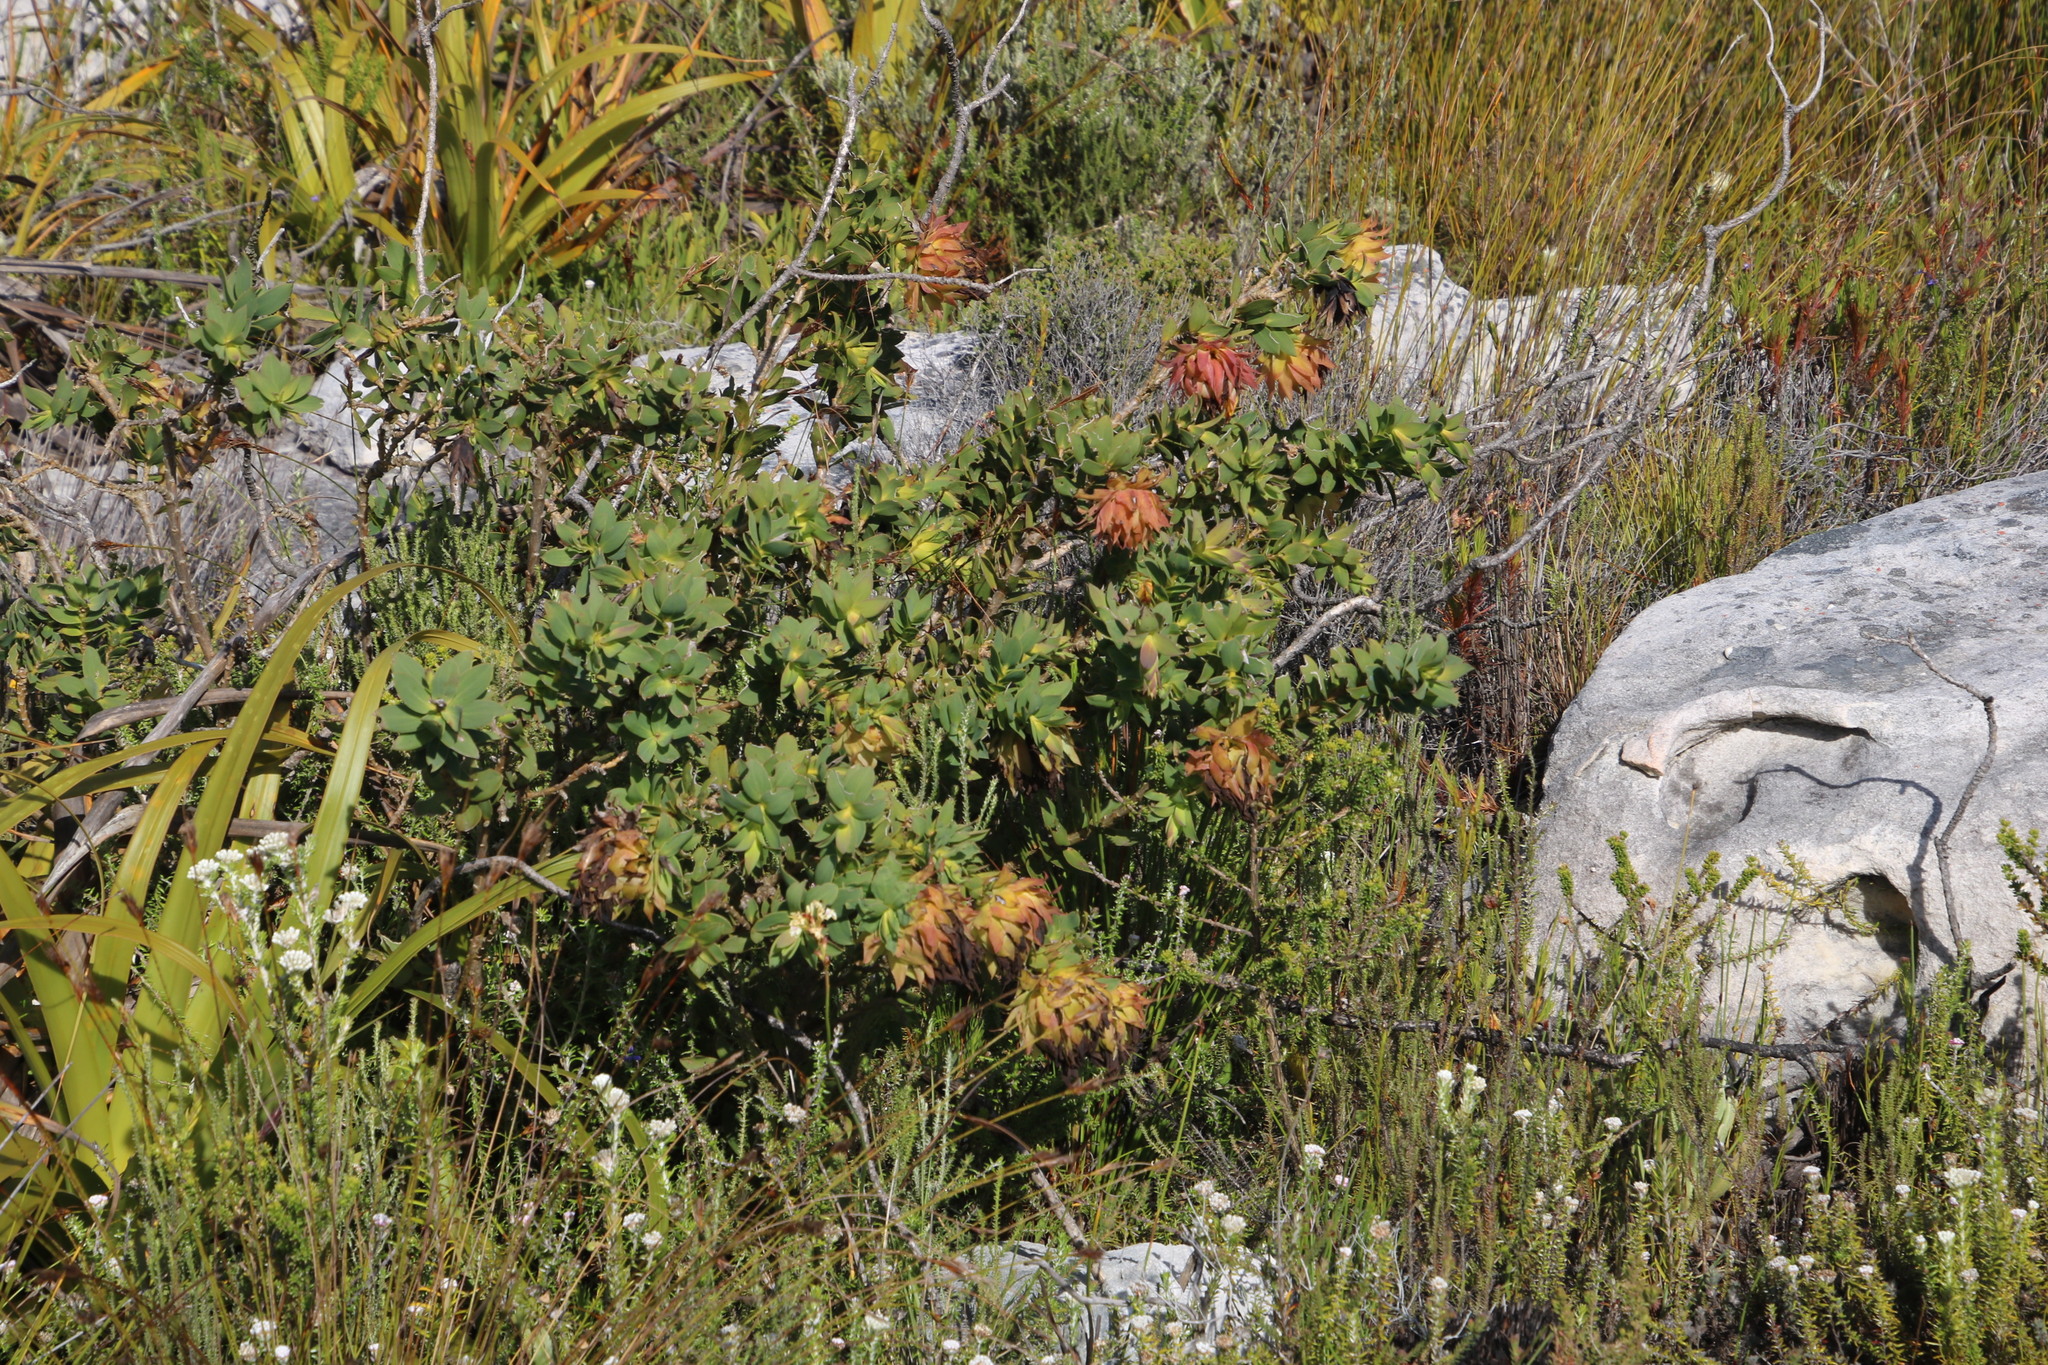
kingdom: Plantae
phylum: Tracheophyta
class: Magnoliopsida
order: Fabales
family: Fabaceae
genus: Liparia
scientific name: Liparia splendens
